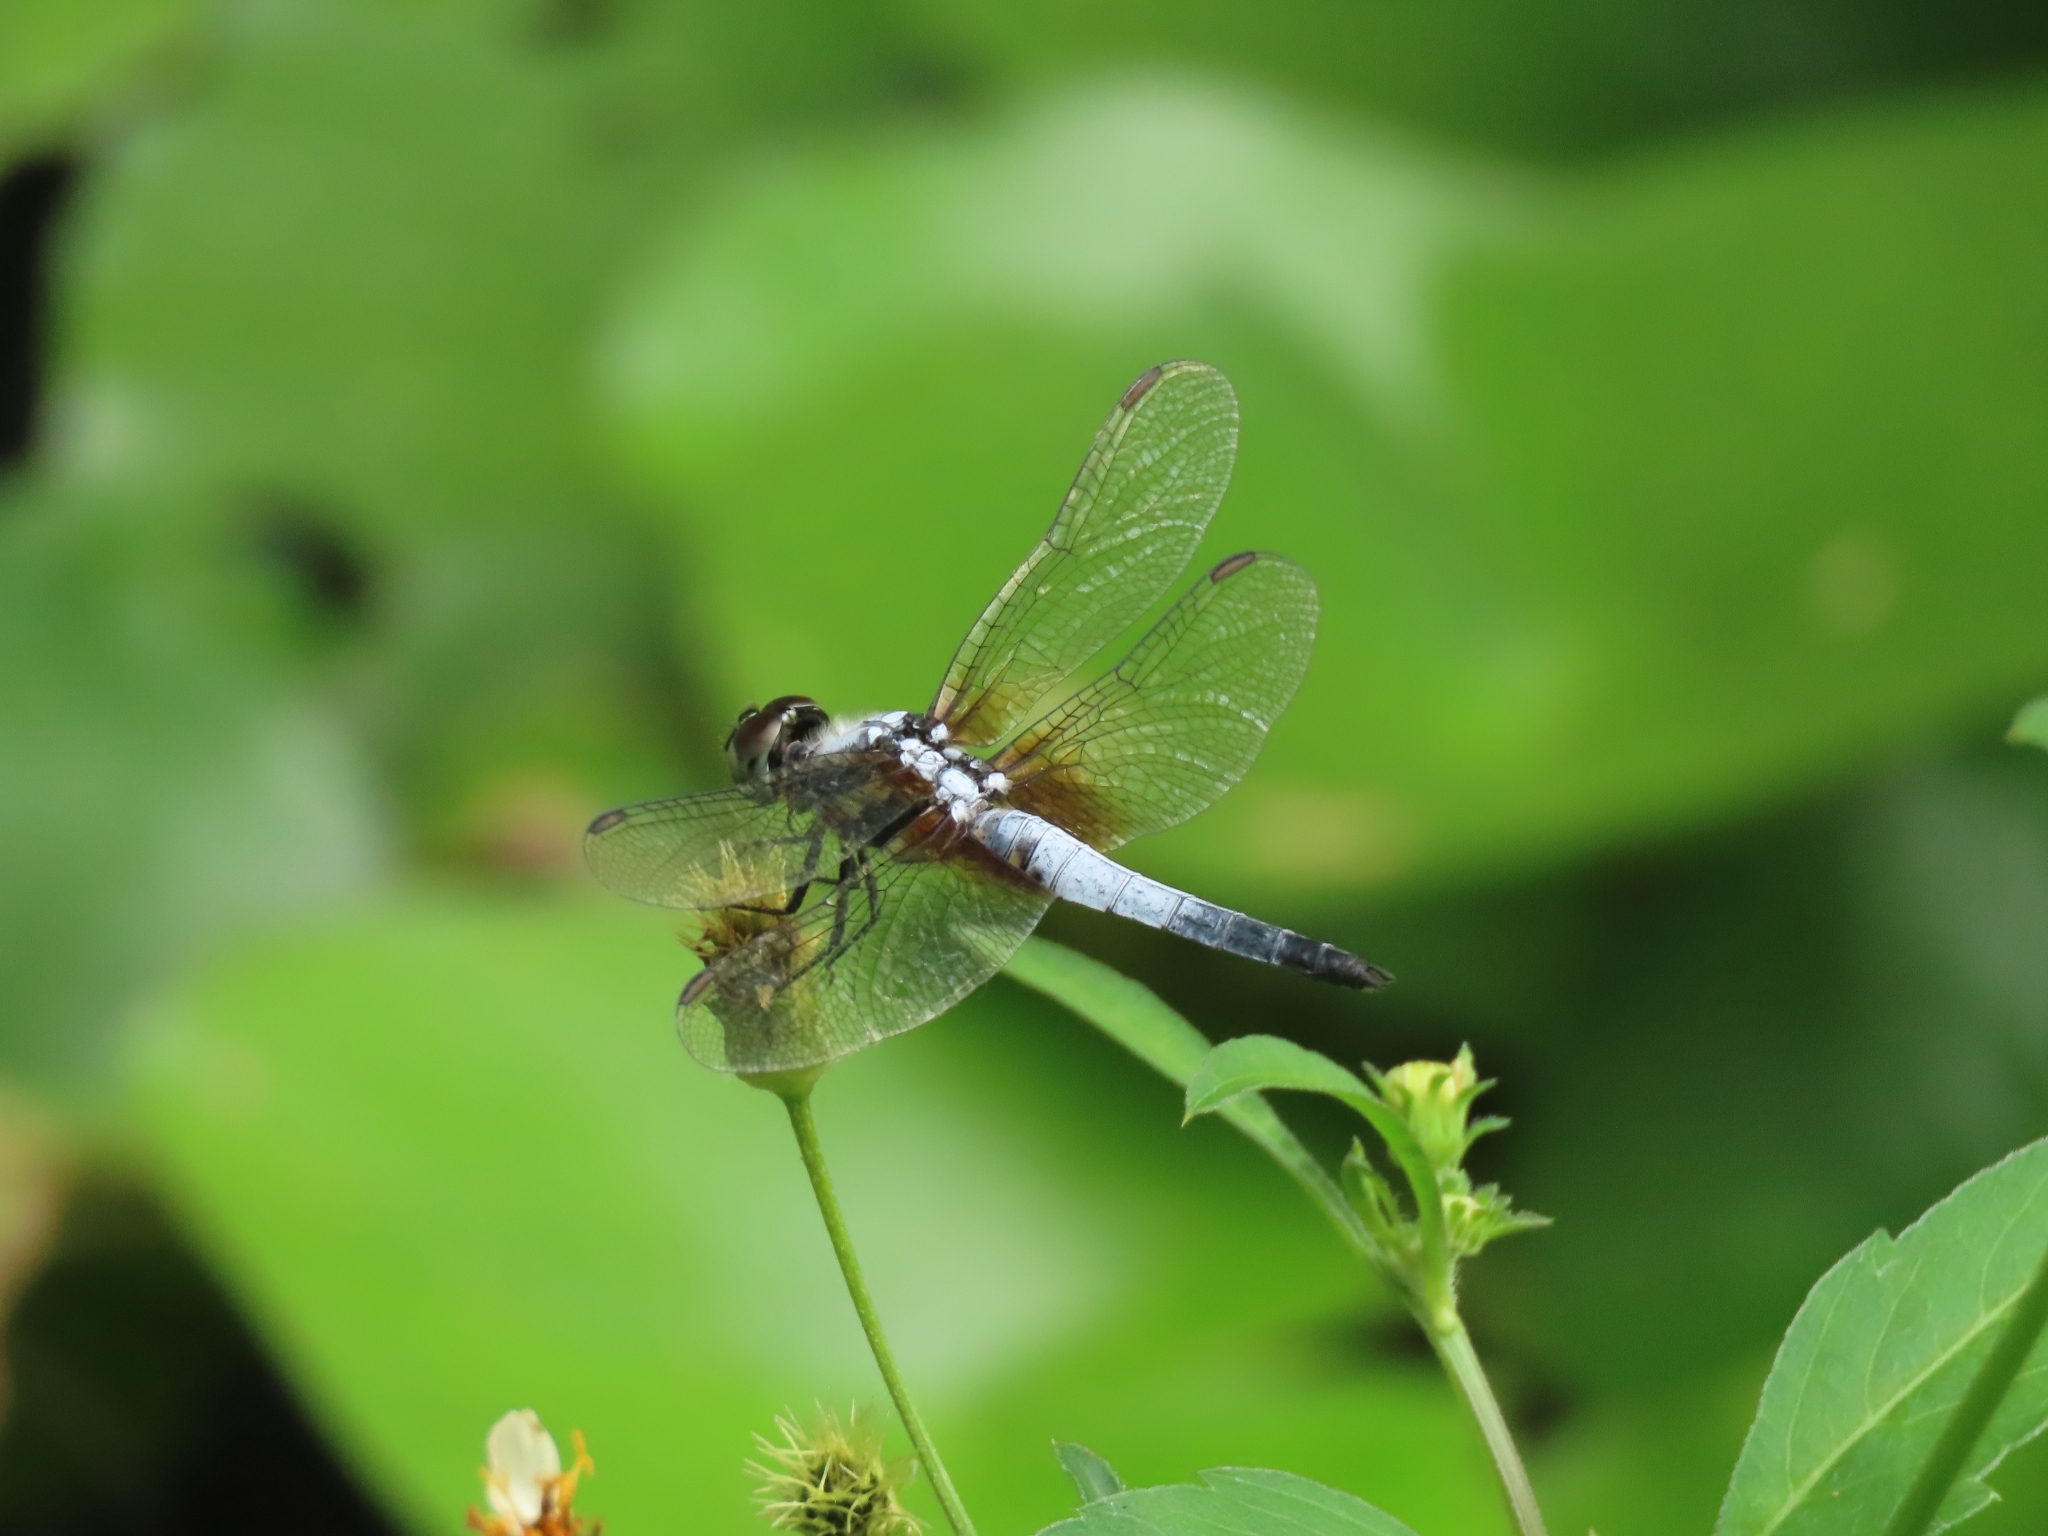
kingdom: Animalia
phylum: Arthropoda
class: Insecta
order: Odonata
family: Libellulidae
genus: Brachydiplax
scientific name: Brachydiplax chalybea
